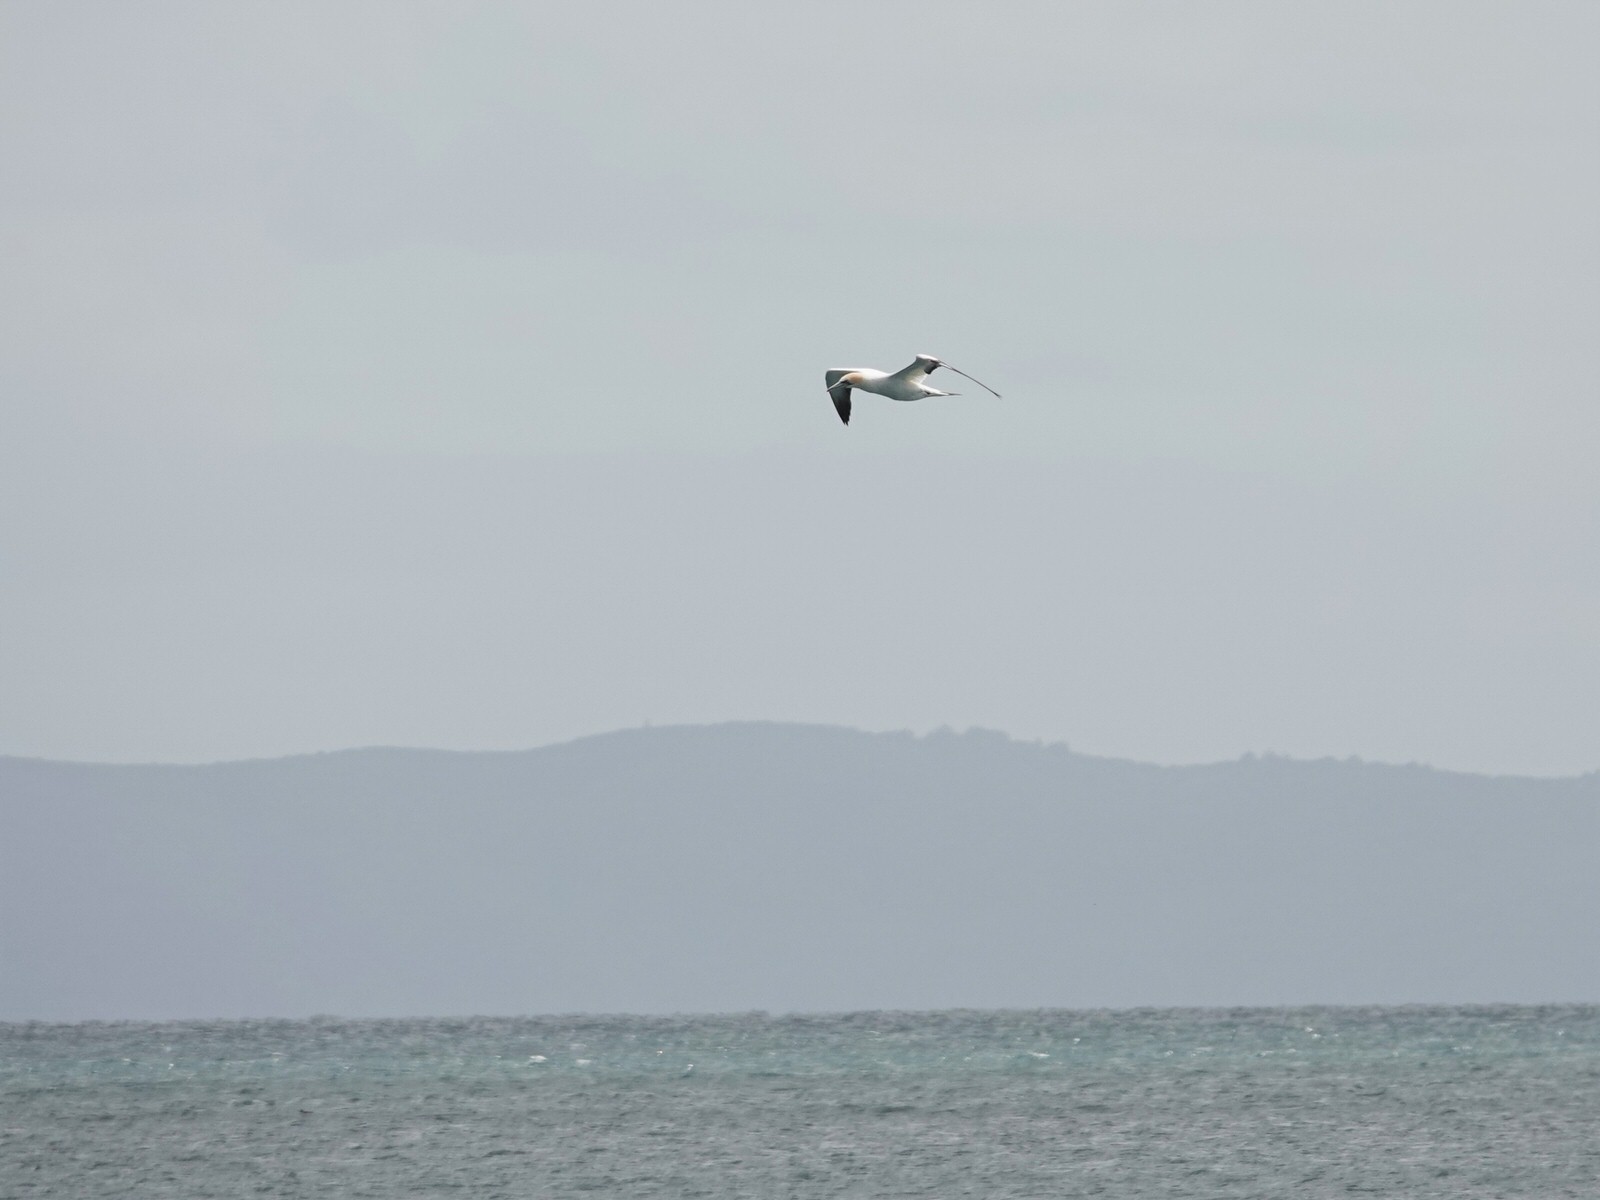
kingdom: Animalia
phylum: Chordata
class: Aves
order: Suliformes
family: Sulidae
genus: Morus
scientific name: Morus serrator
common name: Australasian gannet
